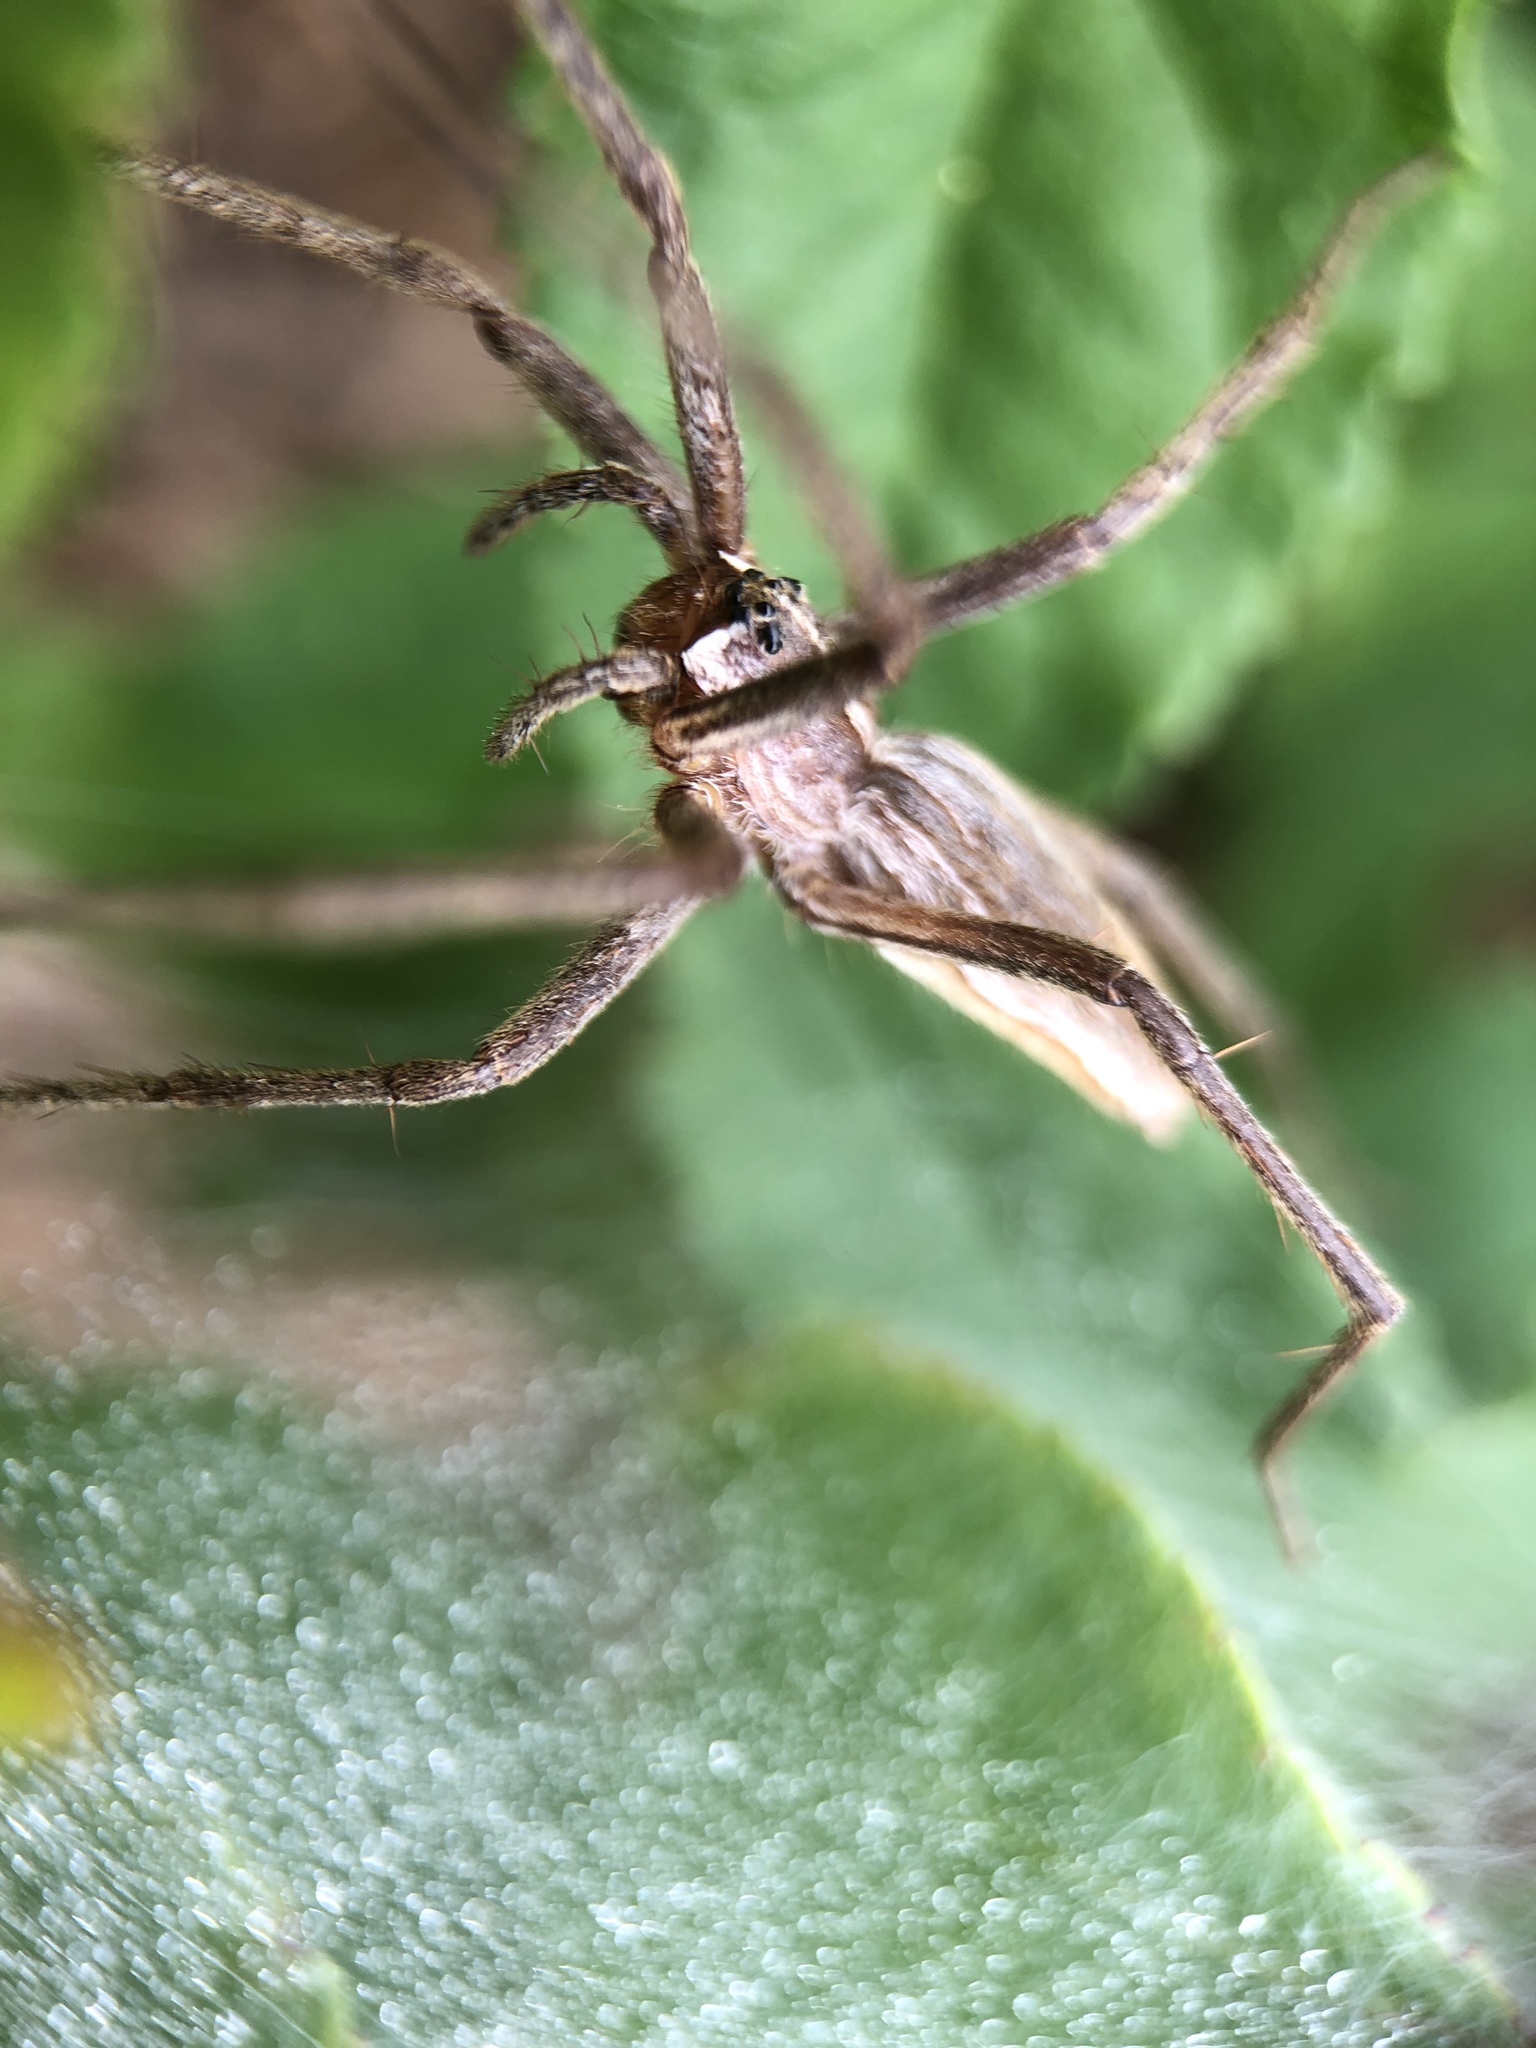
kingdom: Animalia
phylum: Arthropoda
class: Arachnida
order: Araneae
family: Pisauridae
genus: Pisaura
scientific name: Pisaura mirabilis
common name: Tent spider
